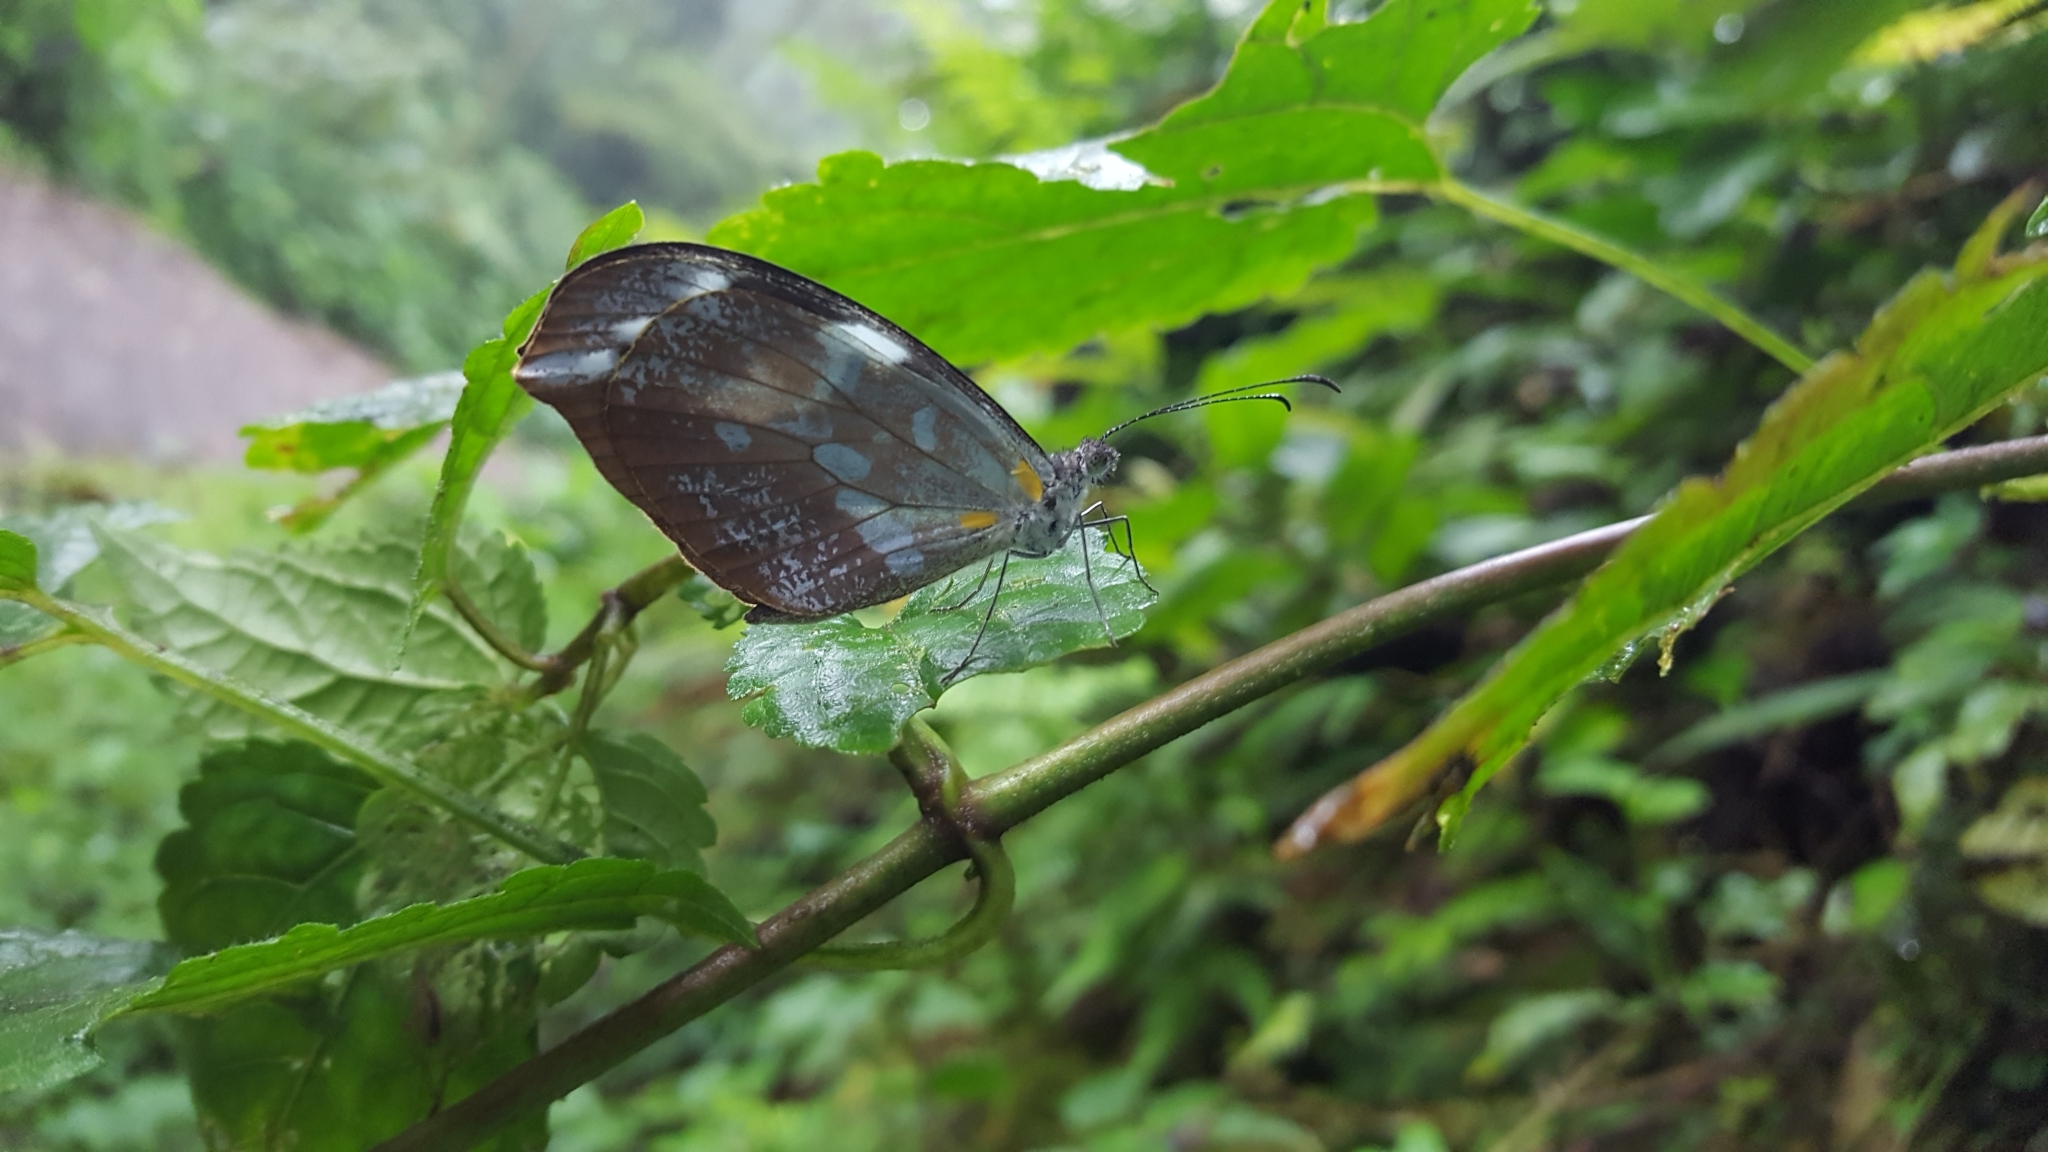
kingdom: Animalia
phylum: Arthropoda
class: Insecta
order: Lepidoptera
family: Pieridae
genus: Dismorphia
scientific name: Dismorphia crisia
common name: Crisia mimic-white
